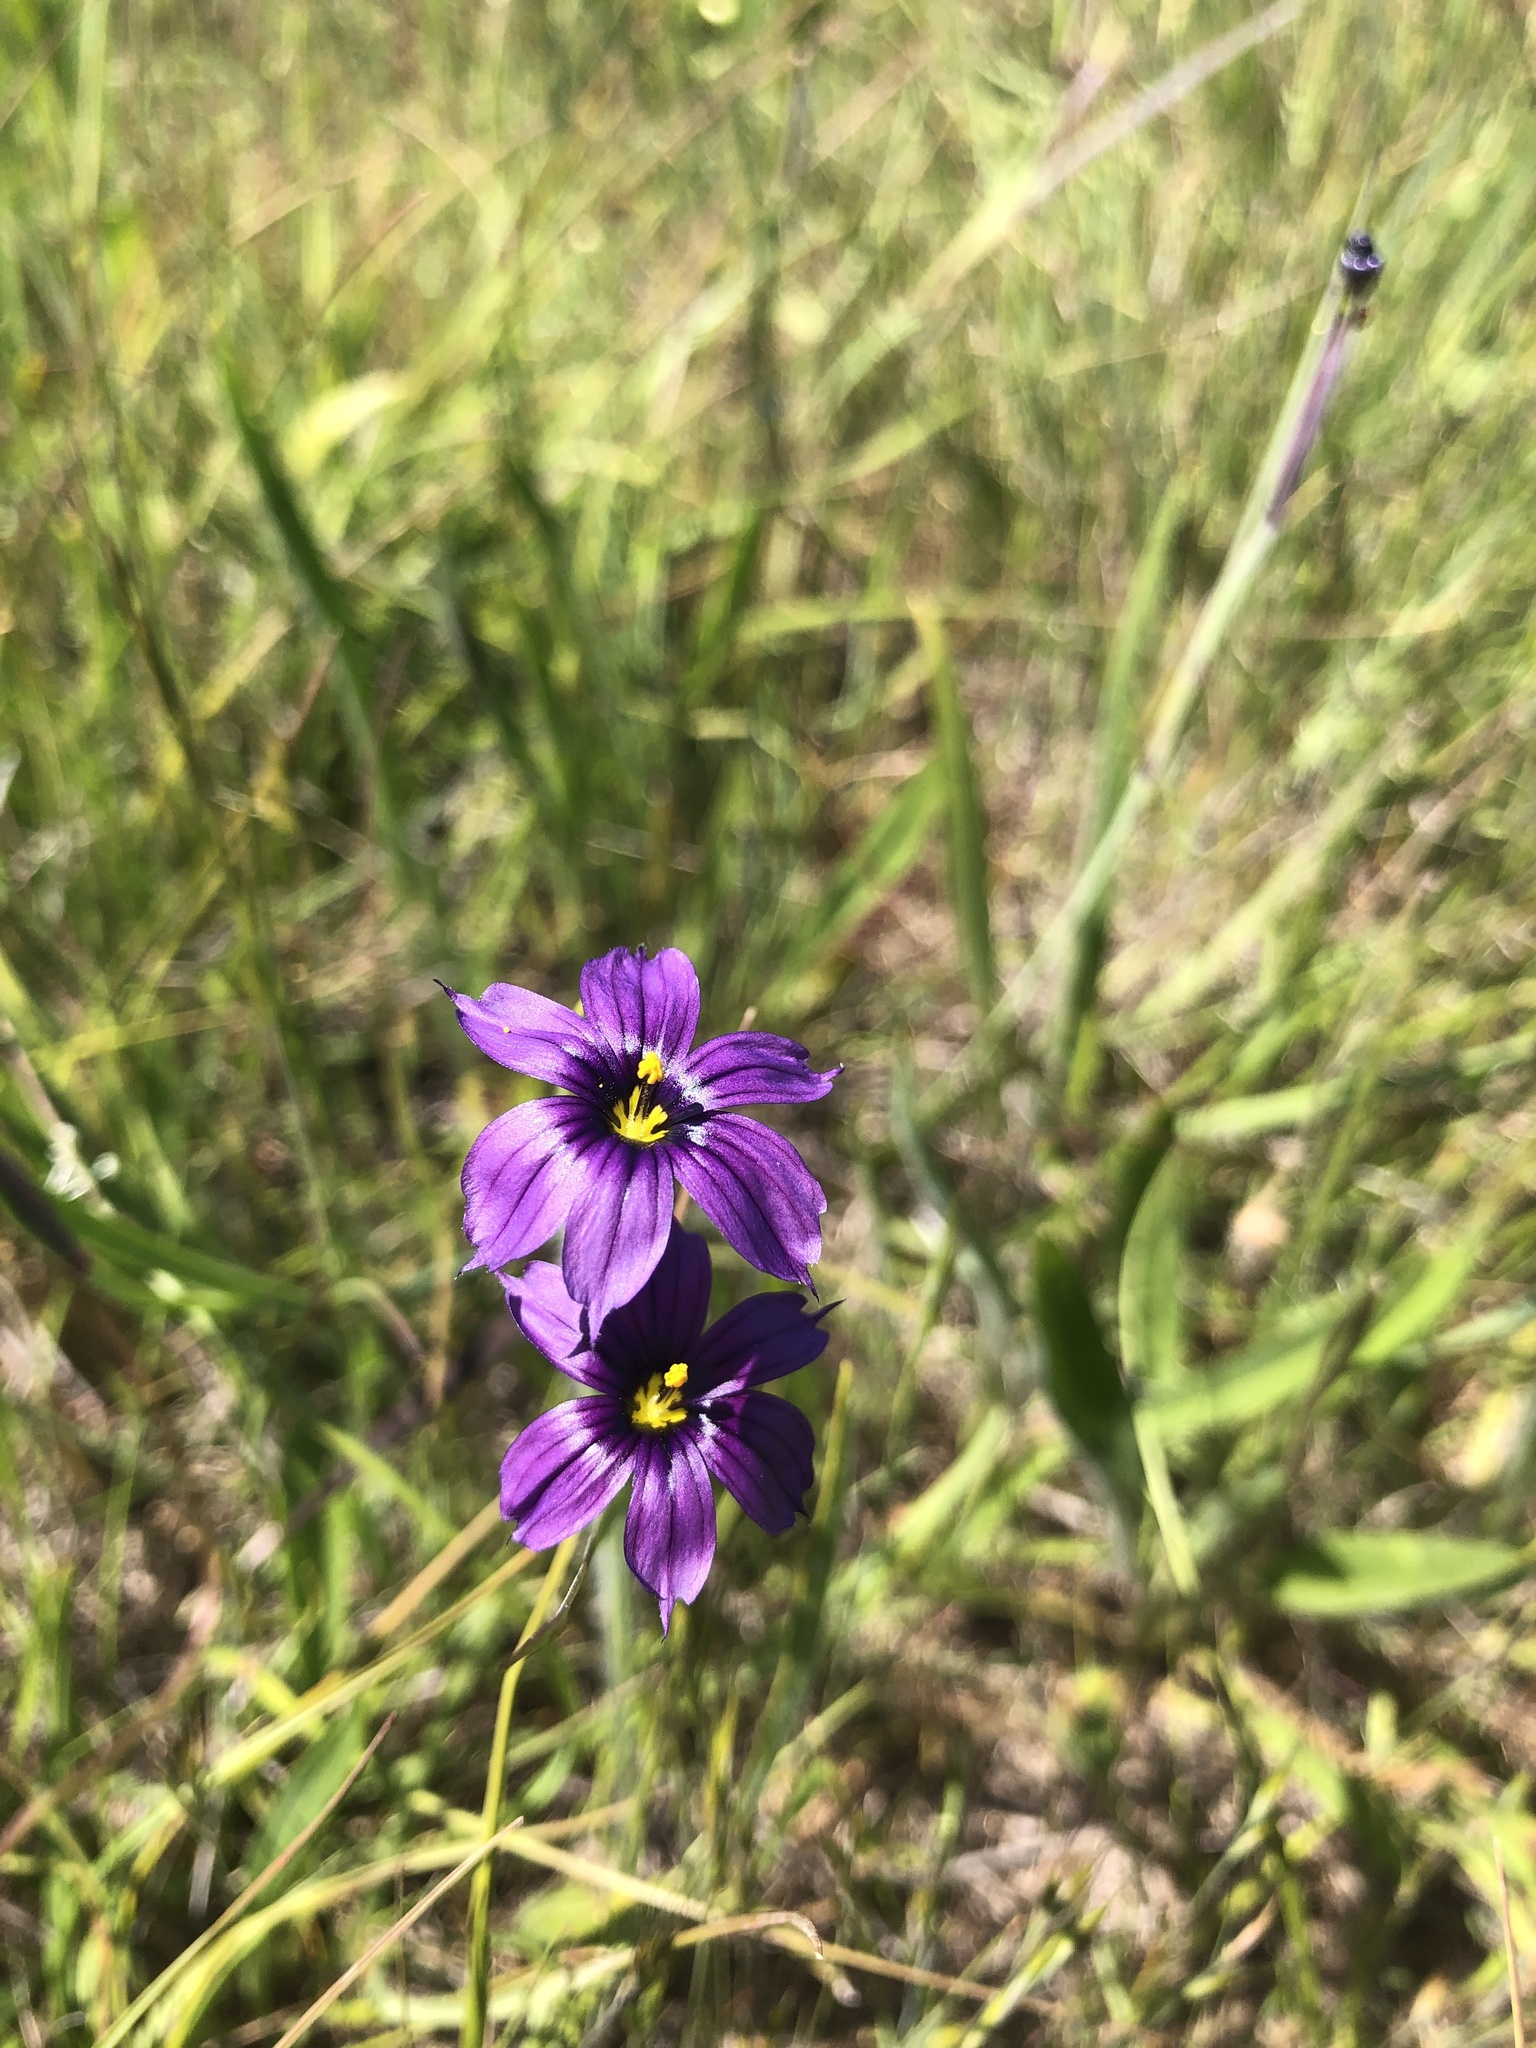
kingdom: Plantae
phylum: Tracheophyta
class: Liliopsida
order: Asparagales
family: Iridaceae
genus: Sisyrinchium
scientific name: Sisyrinchium bellum
